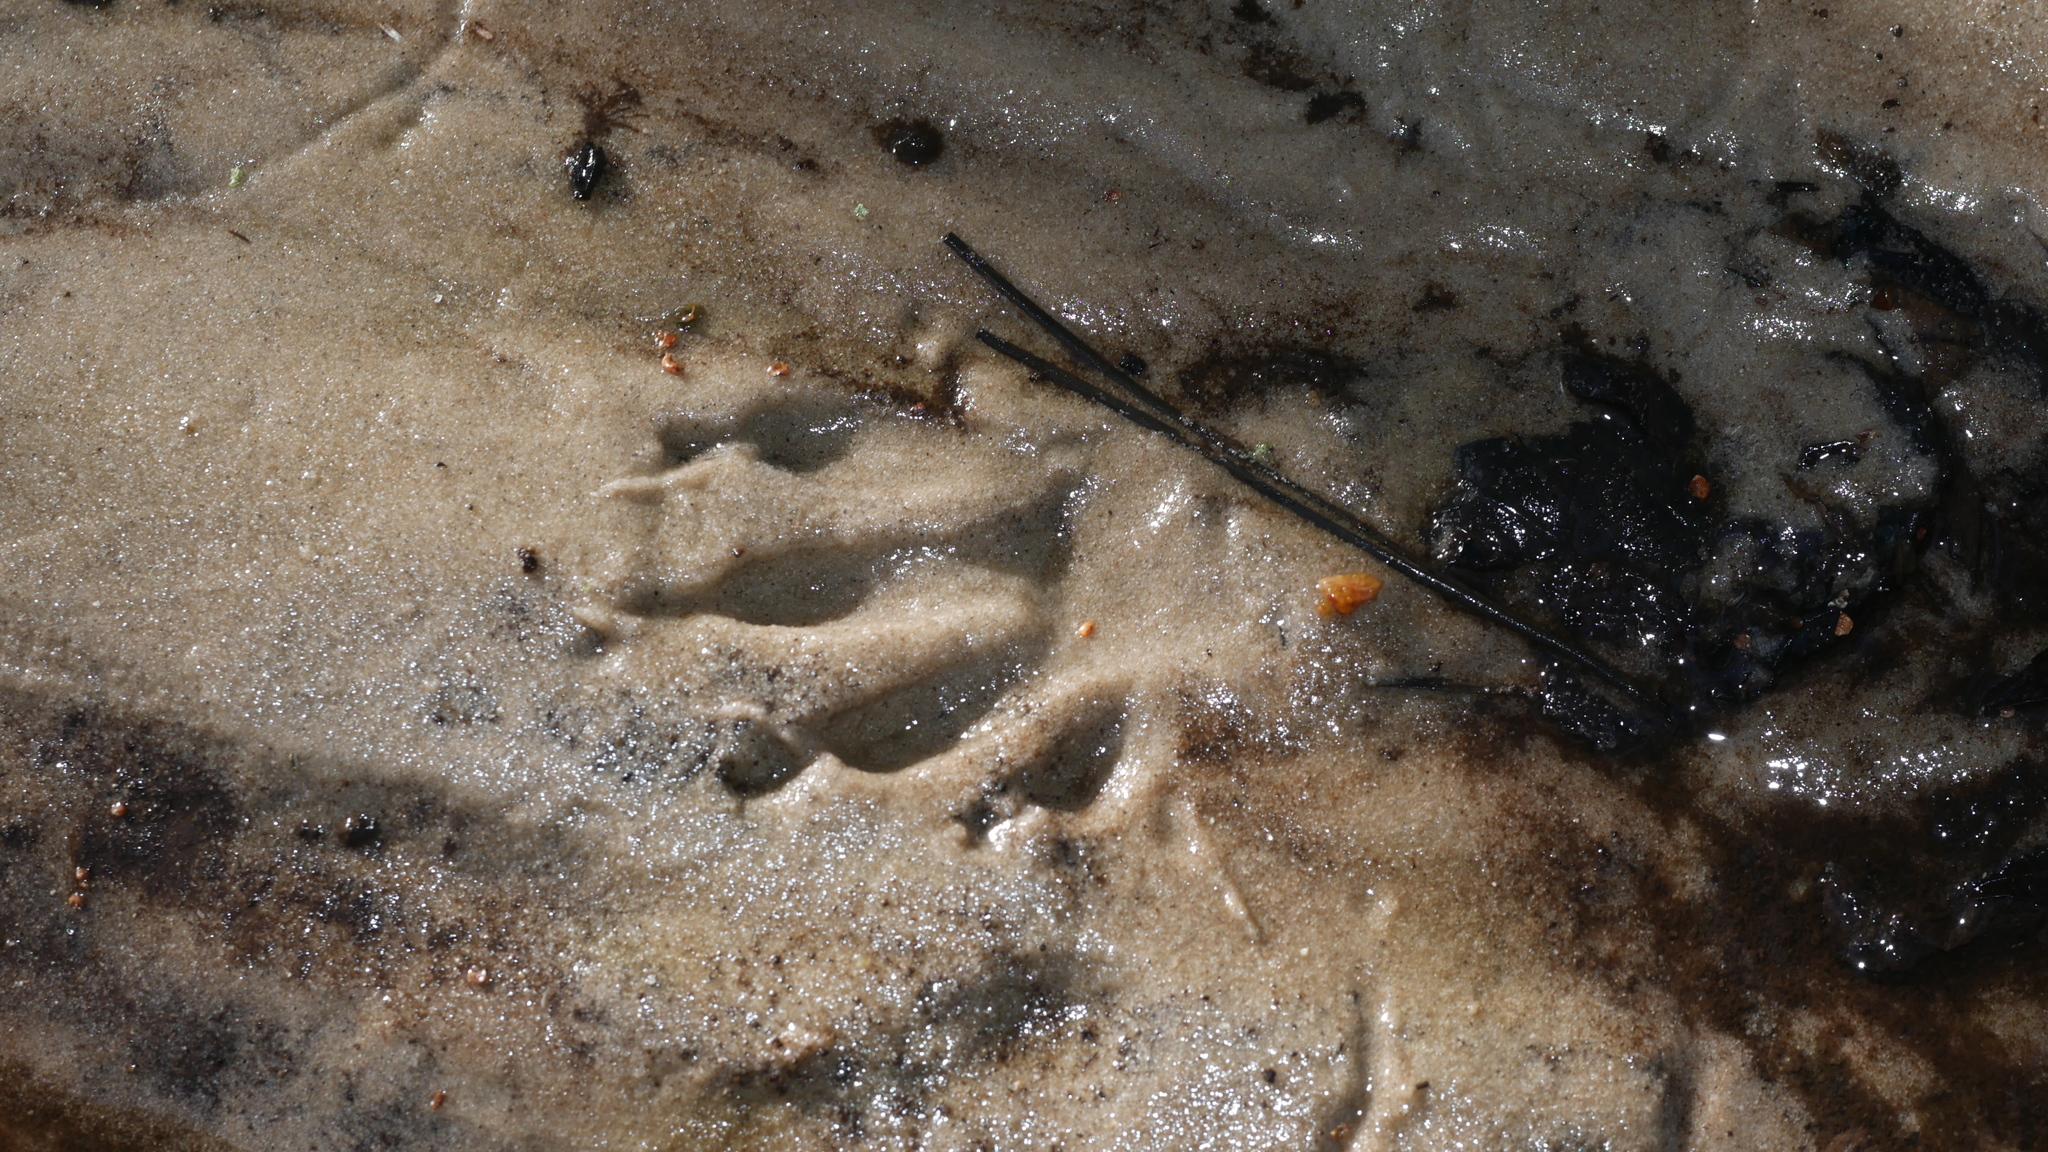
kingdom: Animalia
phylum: Chordata
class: Mammalia
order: Carnivora
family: Procyonidae
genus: Procyon
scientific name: Procyon lotor
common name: Raccoon
